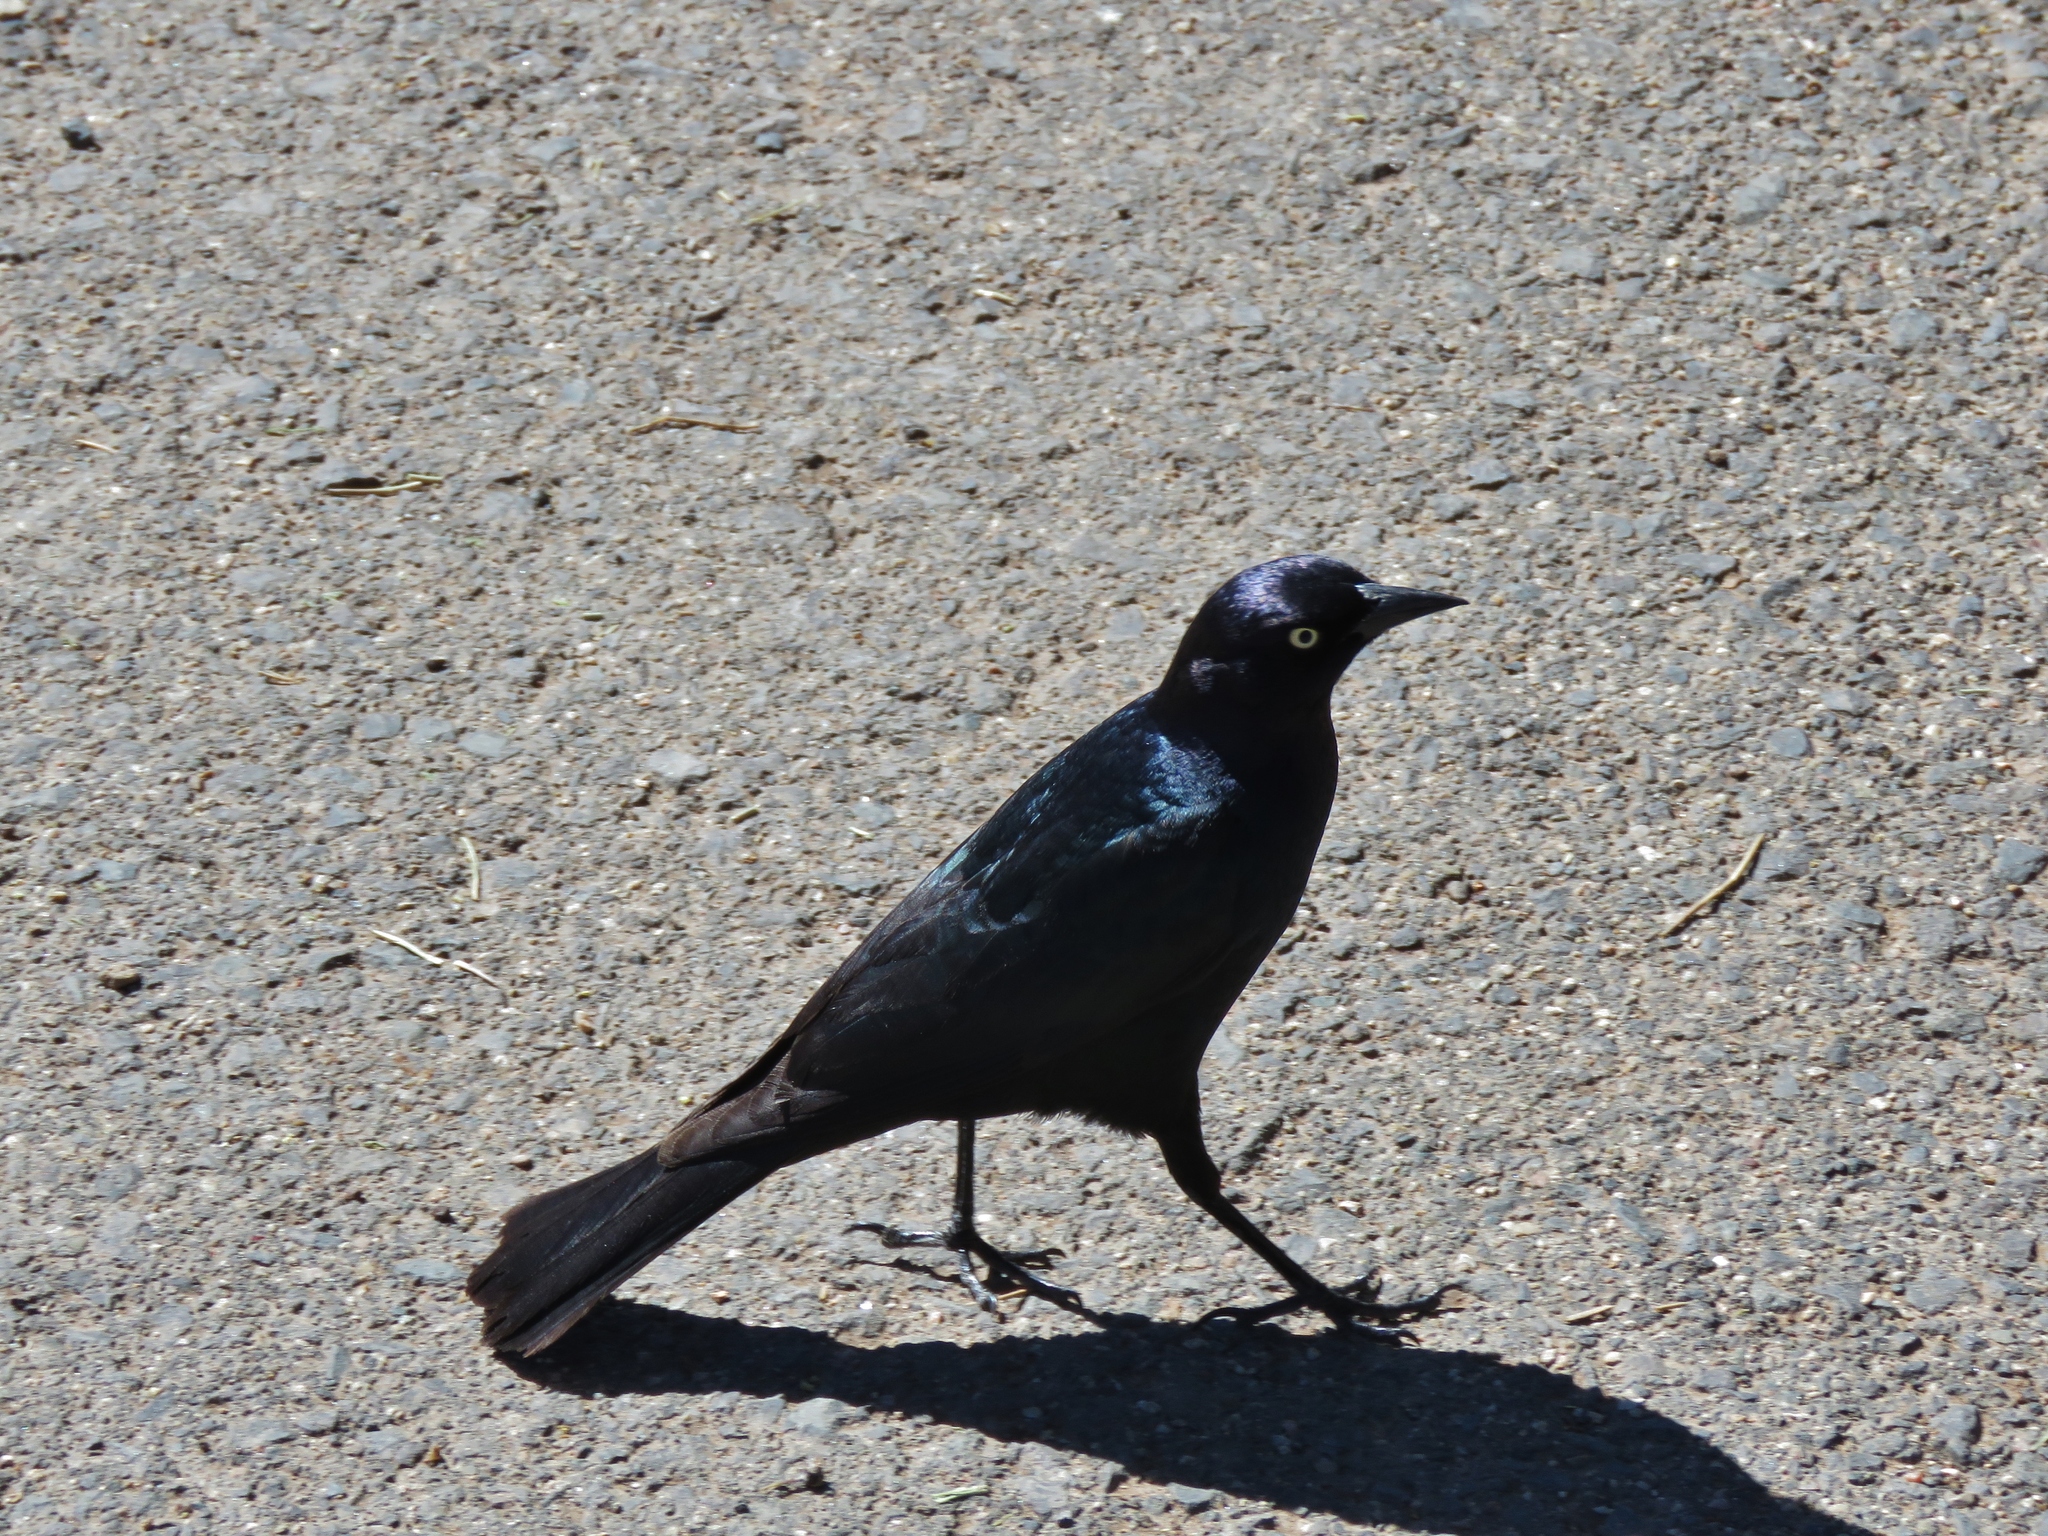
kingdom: Animalia
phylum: Chordata
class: Aves
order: Passeriformes
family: Icteridae
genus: Euphagus
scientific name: Euphagus cyanocephalus
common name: Brewer's blackbird
